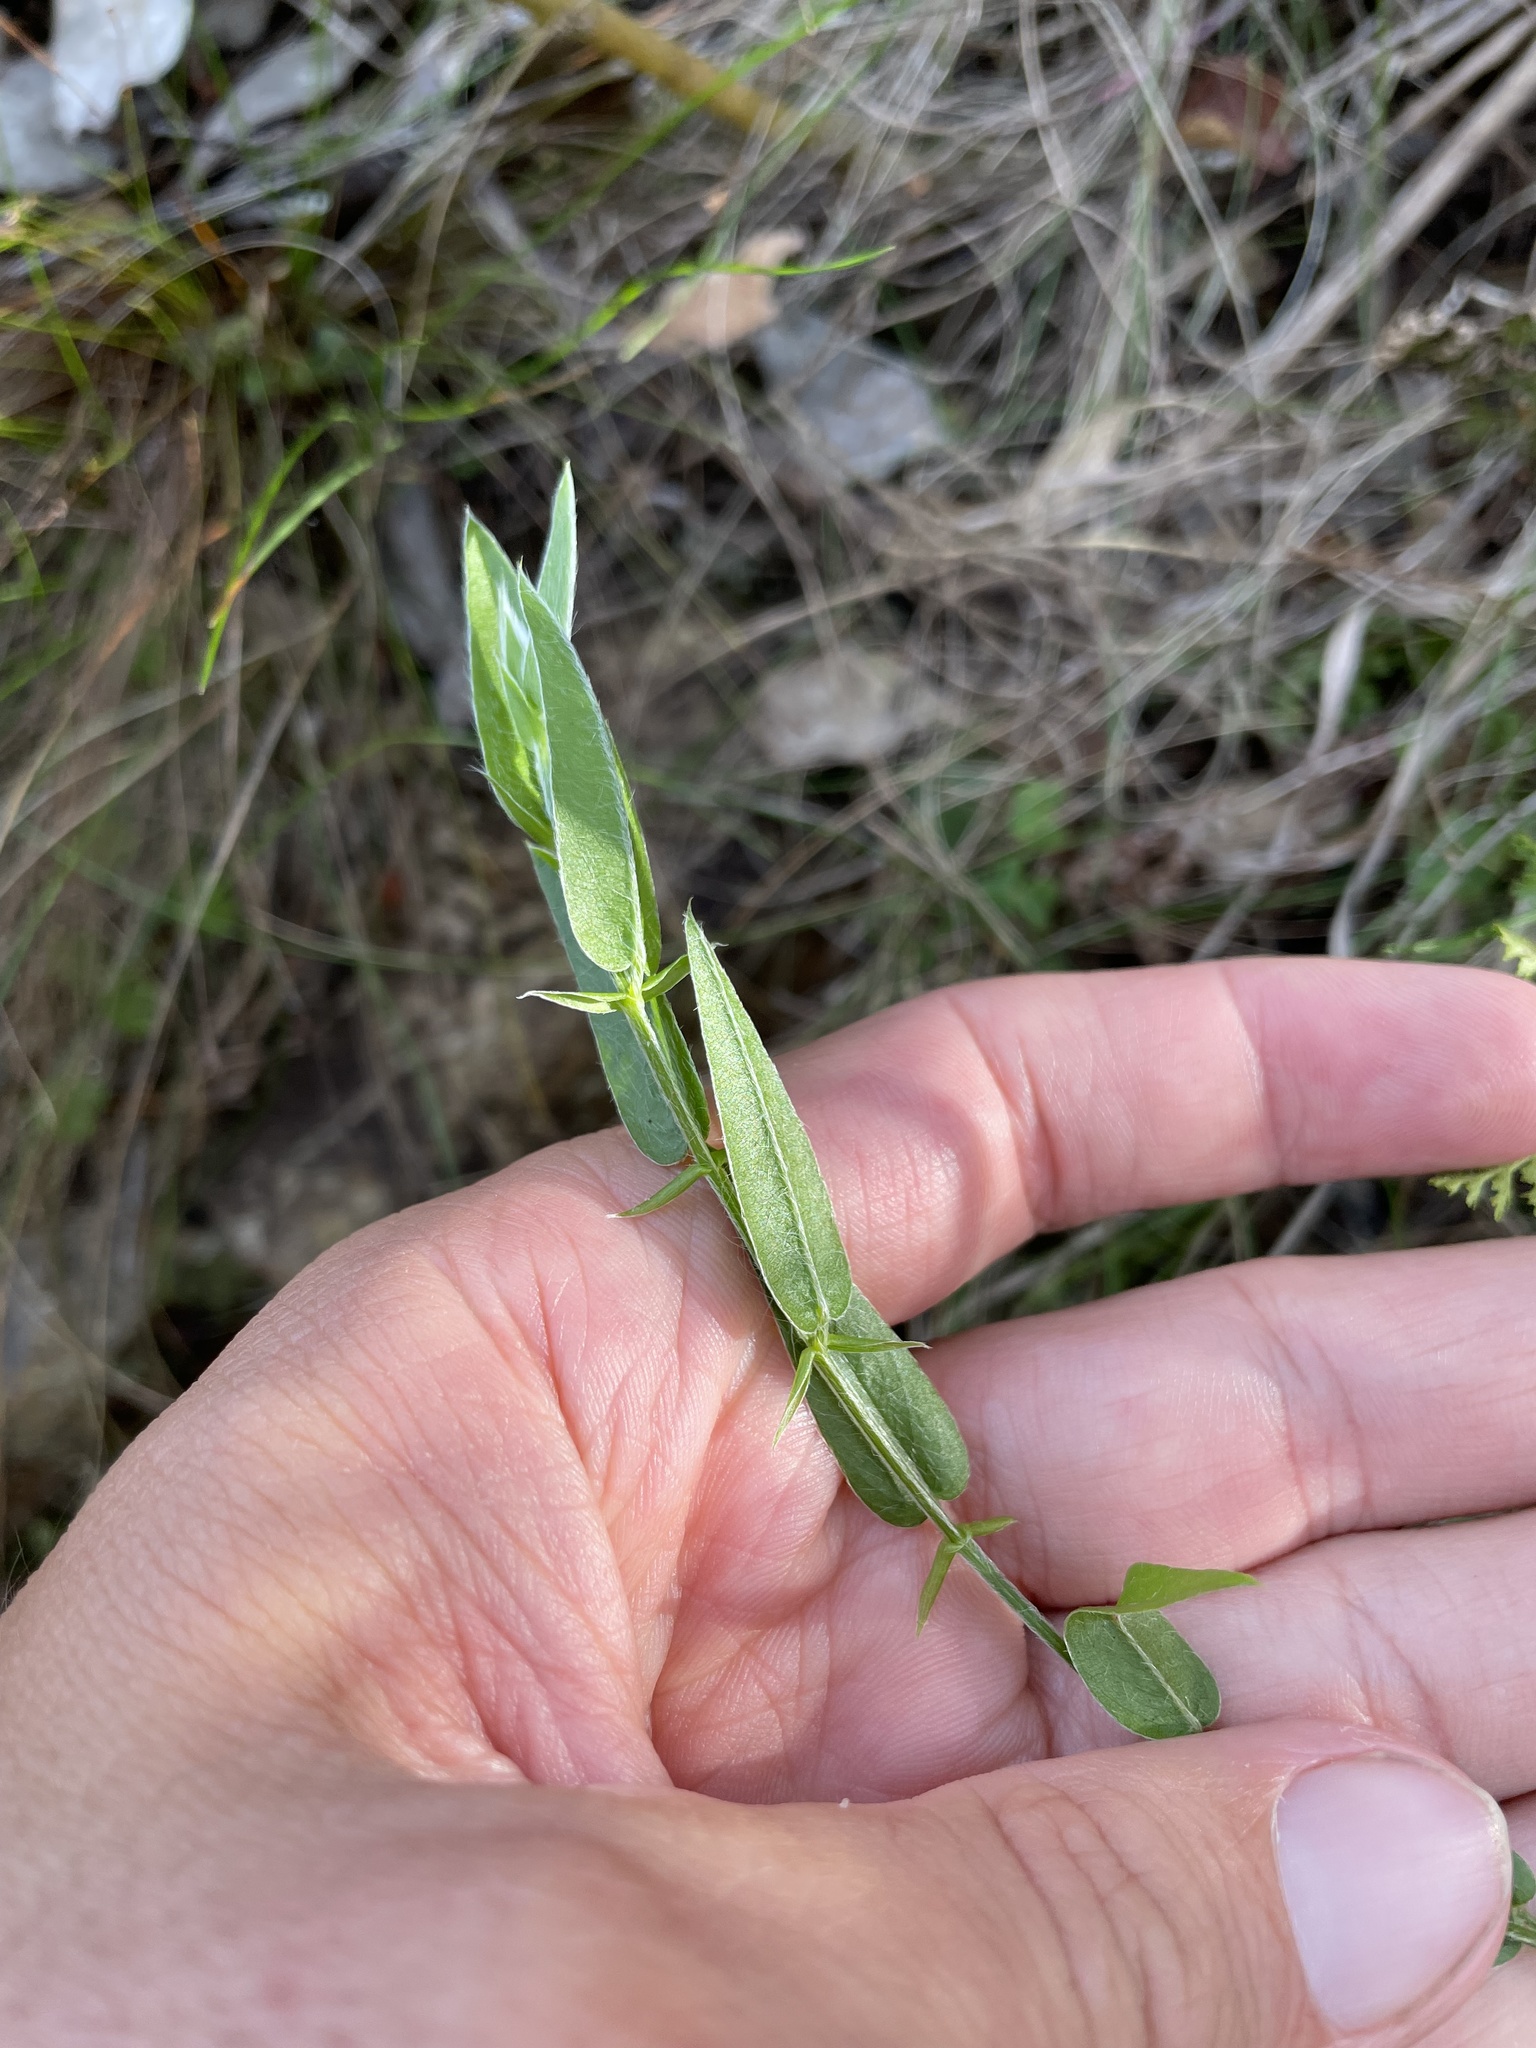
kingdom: Plantae
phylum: Tracheophyta
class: Magnoliopsida
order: Fabales
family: Fabaceae
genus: Psoralea
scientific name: Psoralea monophylla
